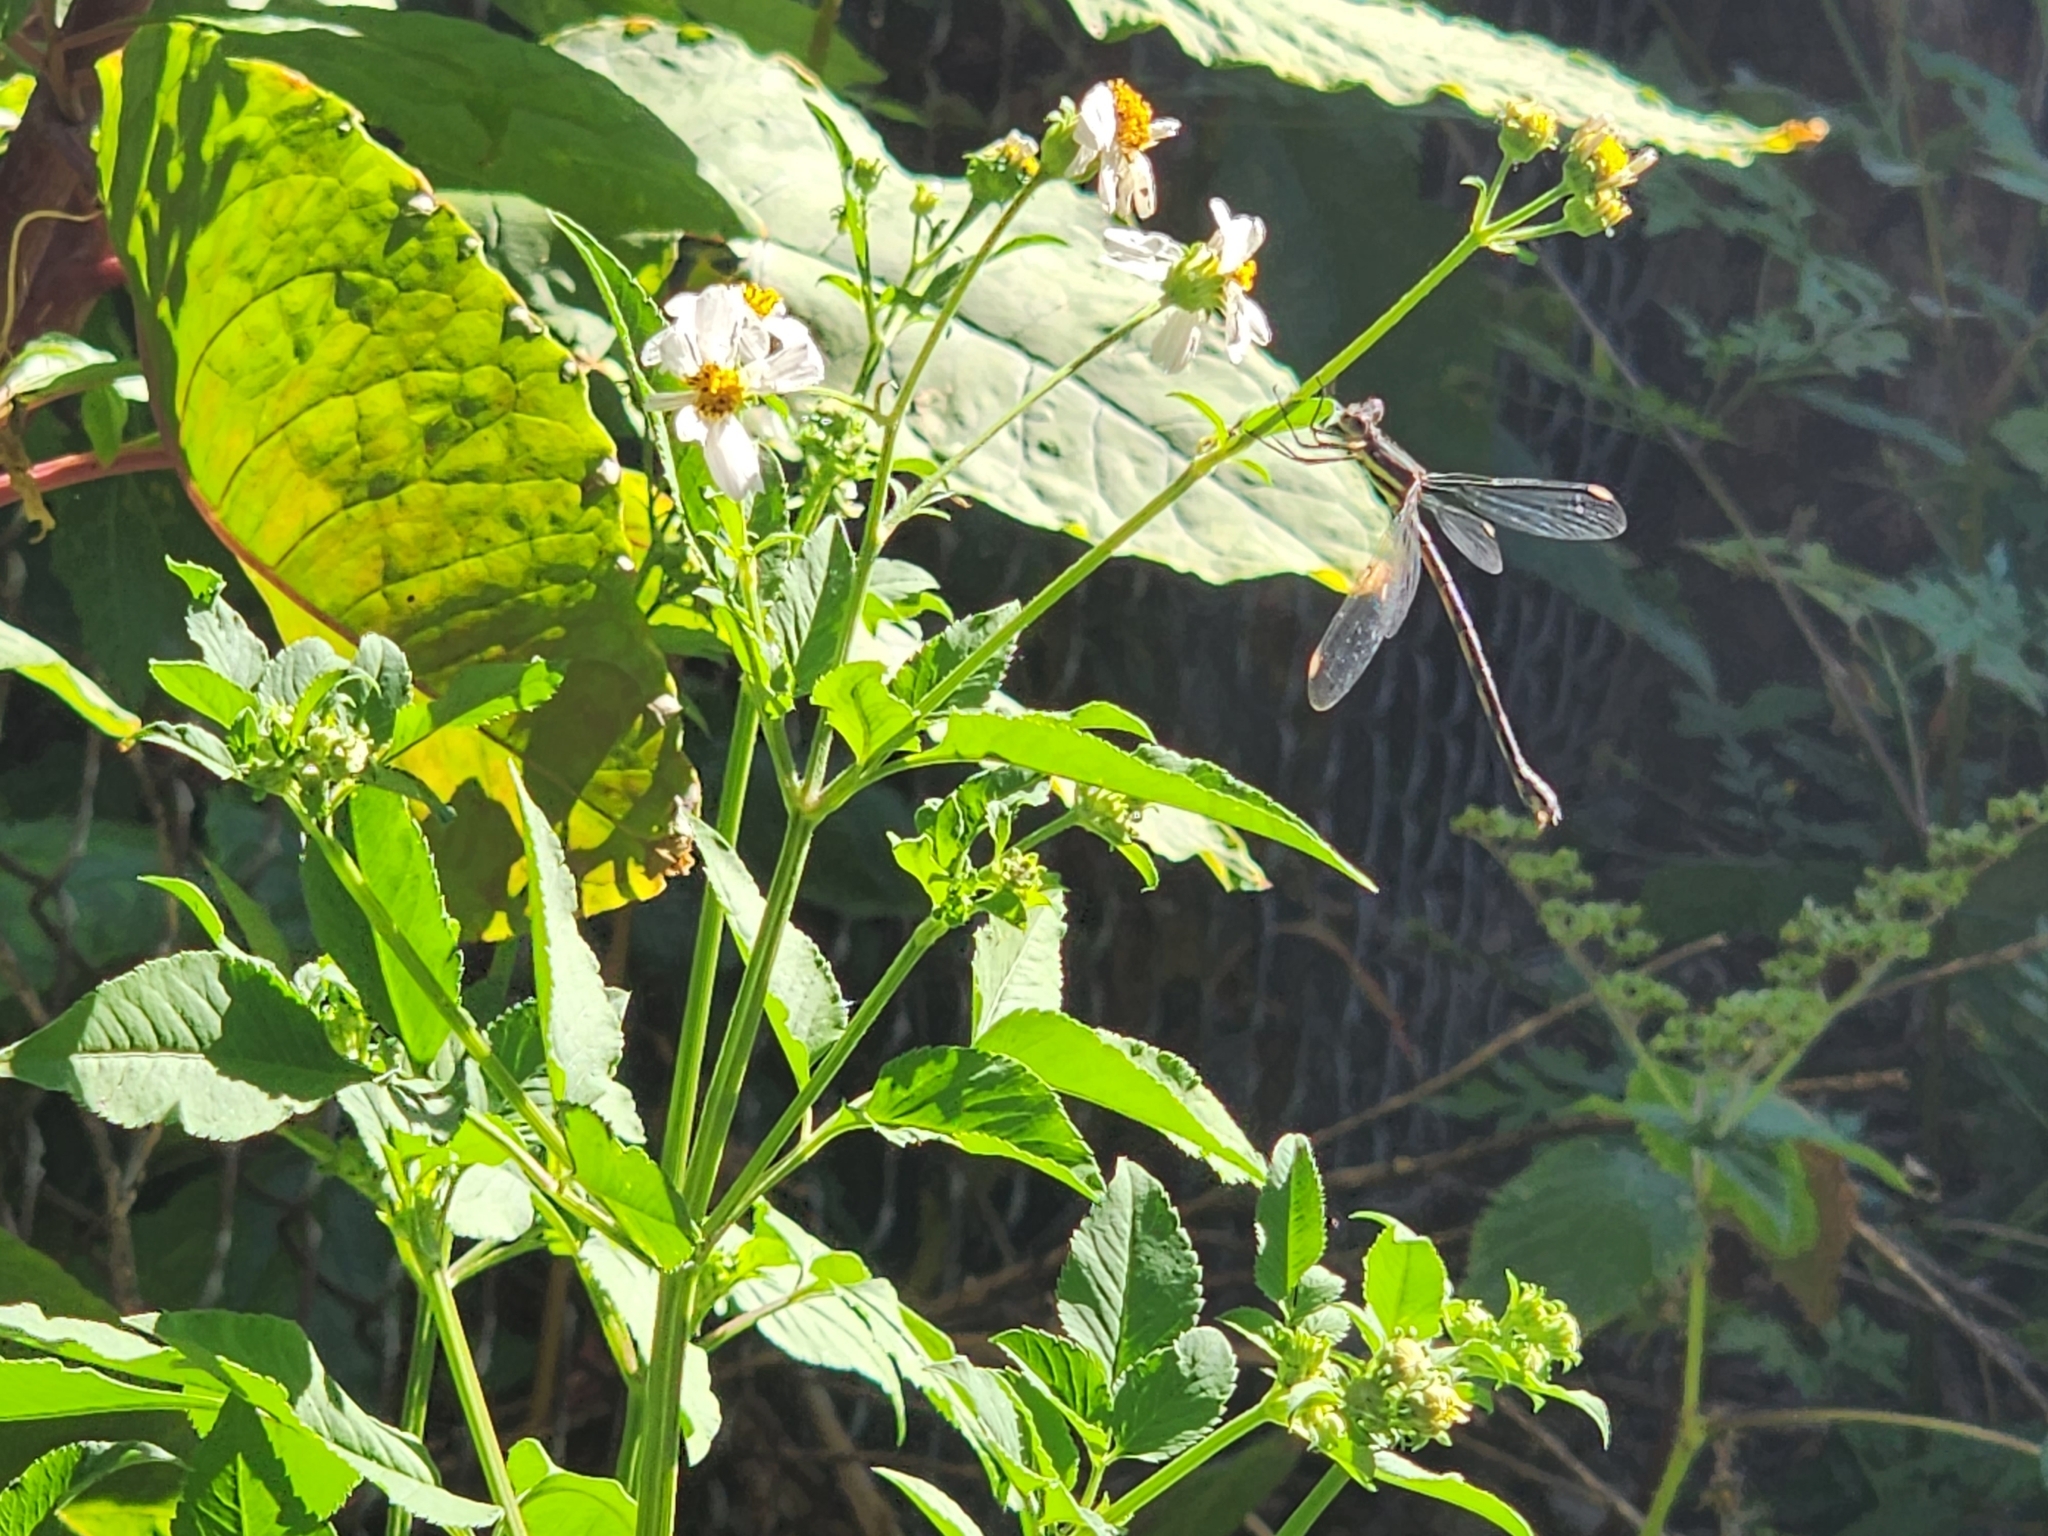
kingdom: Animalia
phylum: Arthropoda
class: Insecta
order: Odonata
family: Lestidae
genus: Archilestes
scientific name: Archilestes grandis
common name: Great spreadwing
